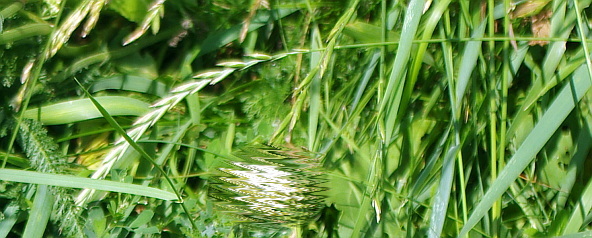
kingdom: Plantae
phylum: Tracheophyta
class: Liliopsida
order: Poales
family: Poaceae
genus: Elymus
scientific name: Elymus repens
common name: Quackgrass
